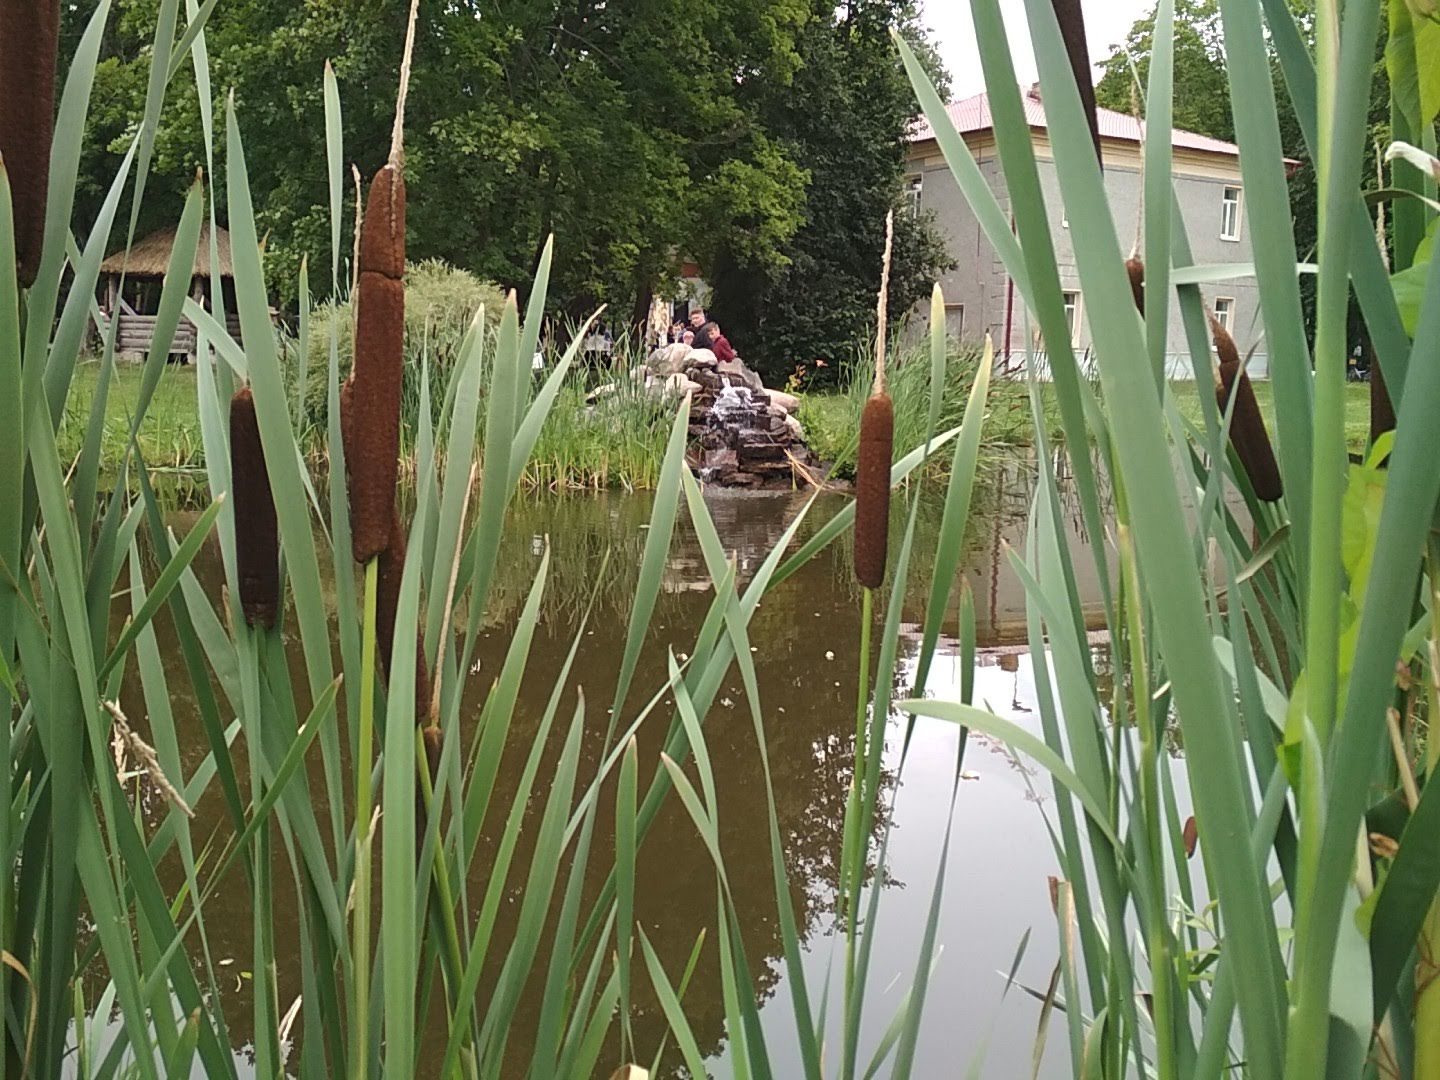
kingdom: Plantae
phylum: Tracheophyta
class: Liliopsida
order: Poales
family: Typhaceae
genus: Typha
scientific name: Typha latifolia
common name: Broadleaf cattail
